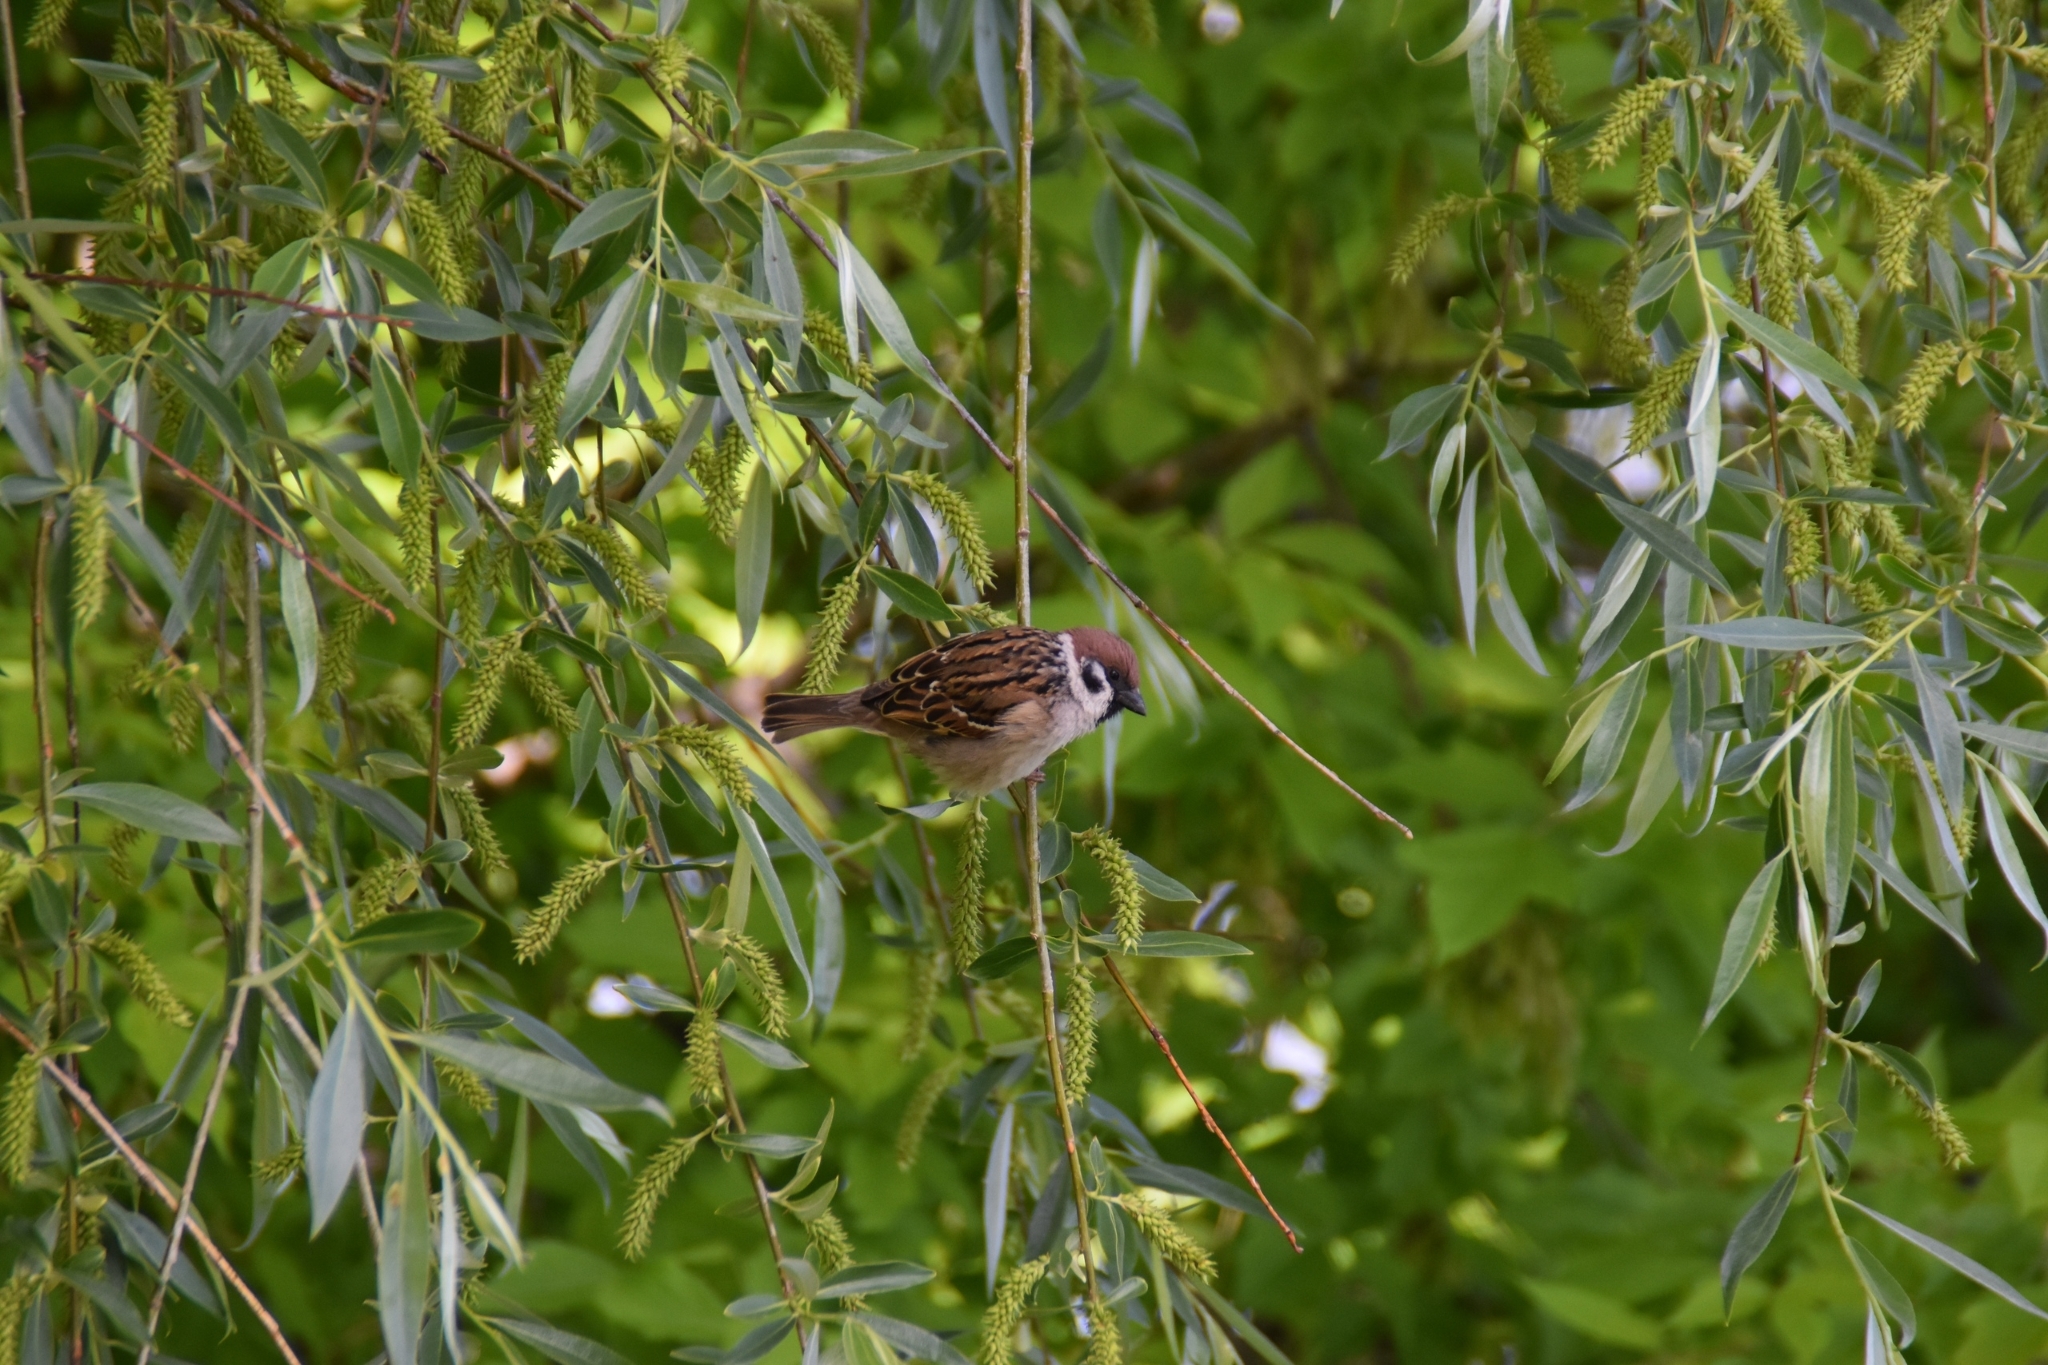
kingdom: Animalia
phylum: Chordata
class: Aves
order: Passeriformes
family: Passeridae
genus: Passer
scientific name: Passer montanus
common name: Eurasian tree sparrow
